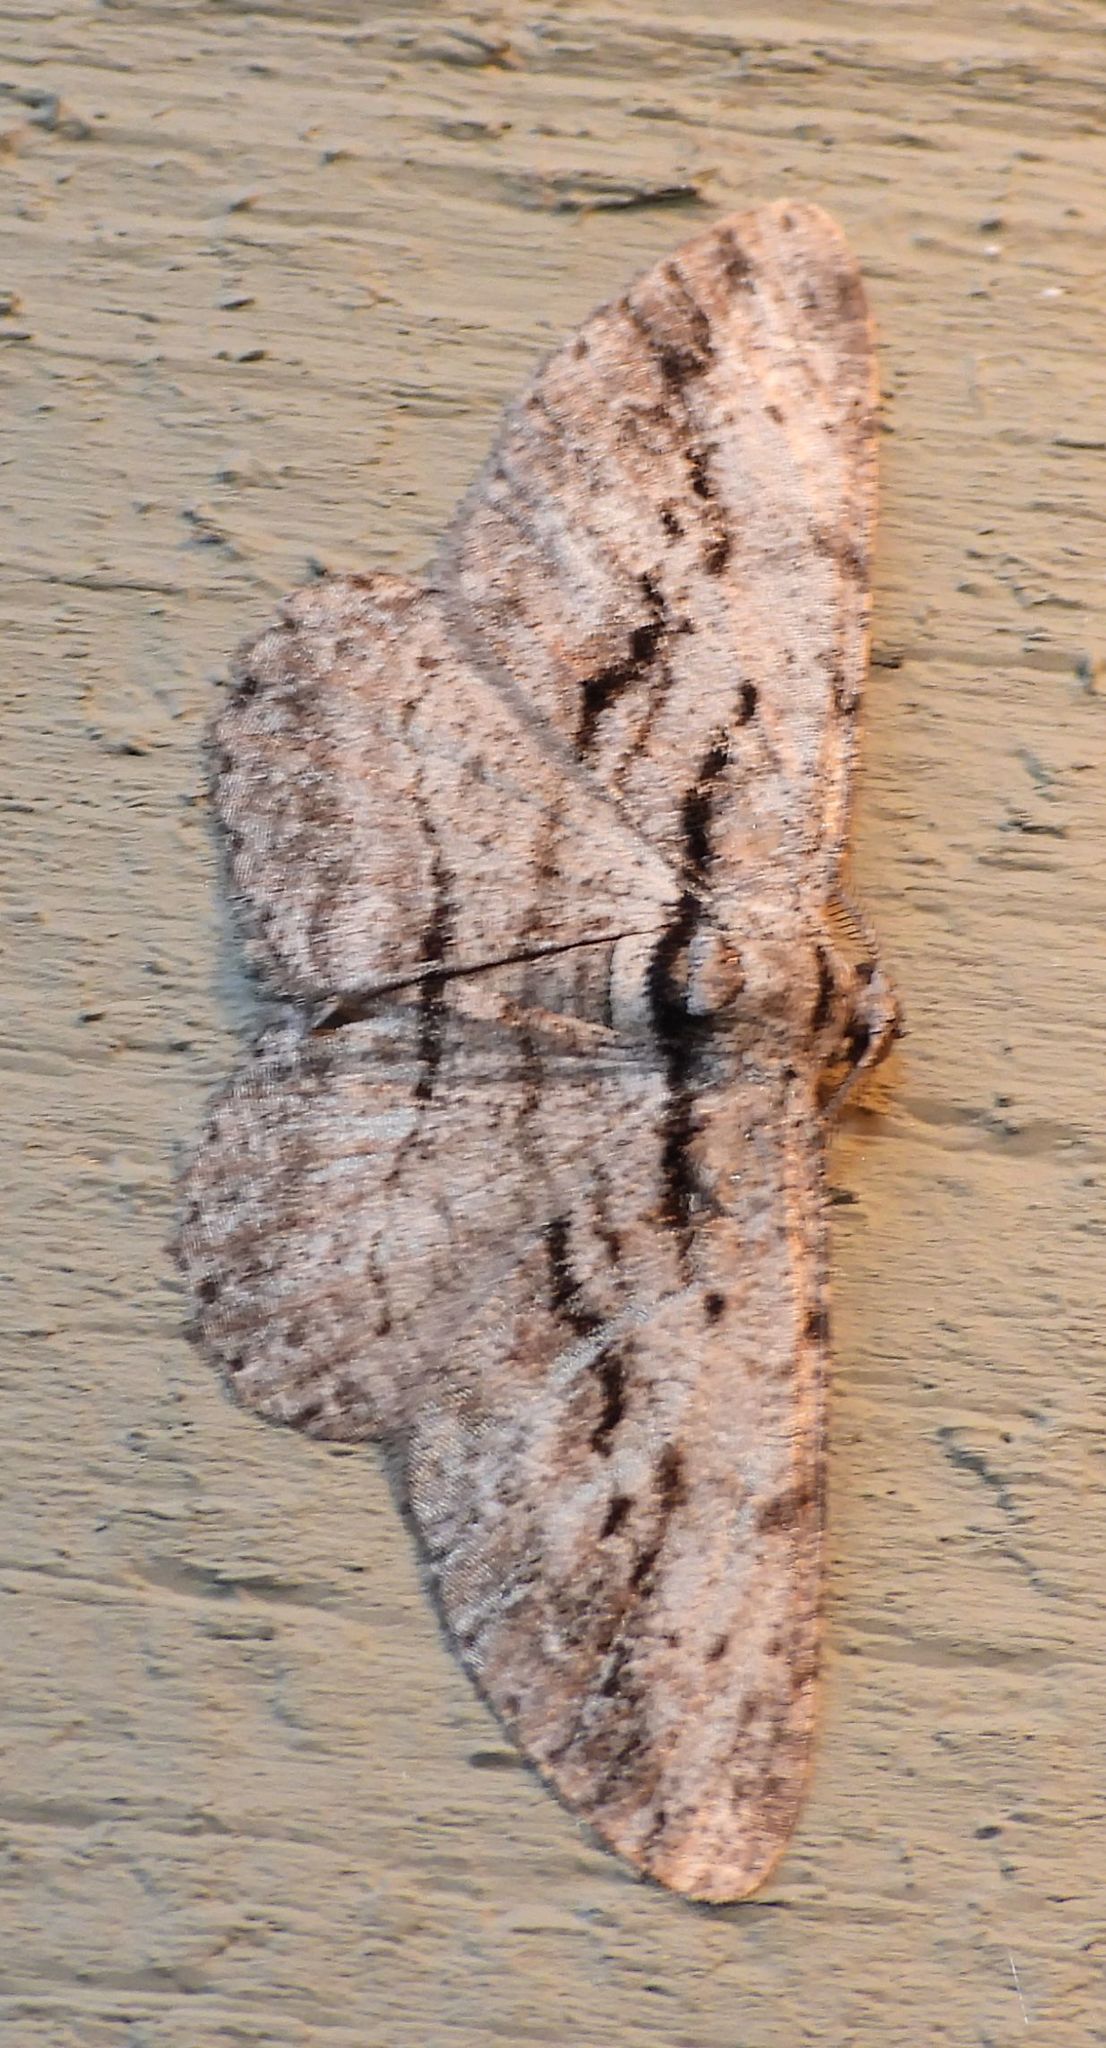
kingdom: Animalia
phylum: Arthropoda
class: Insecta
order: Lepidoptera
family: Geometridae
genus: Anavitrinella
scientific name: Anavitrinella pampinaria
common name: Common gray
